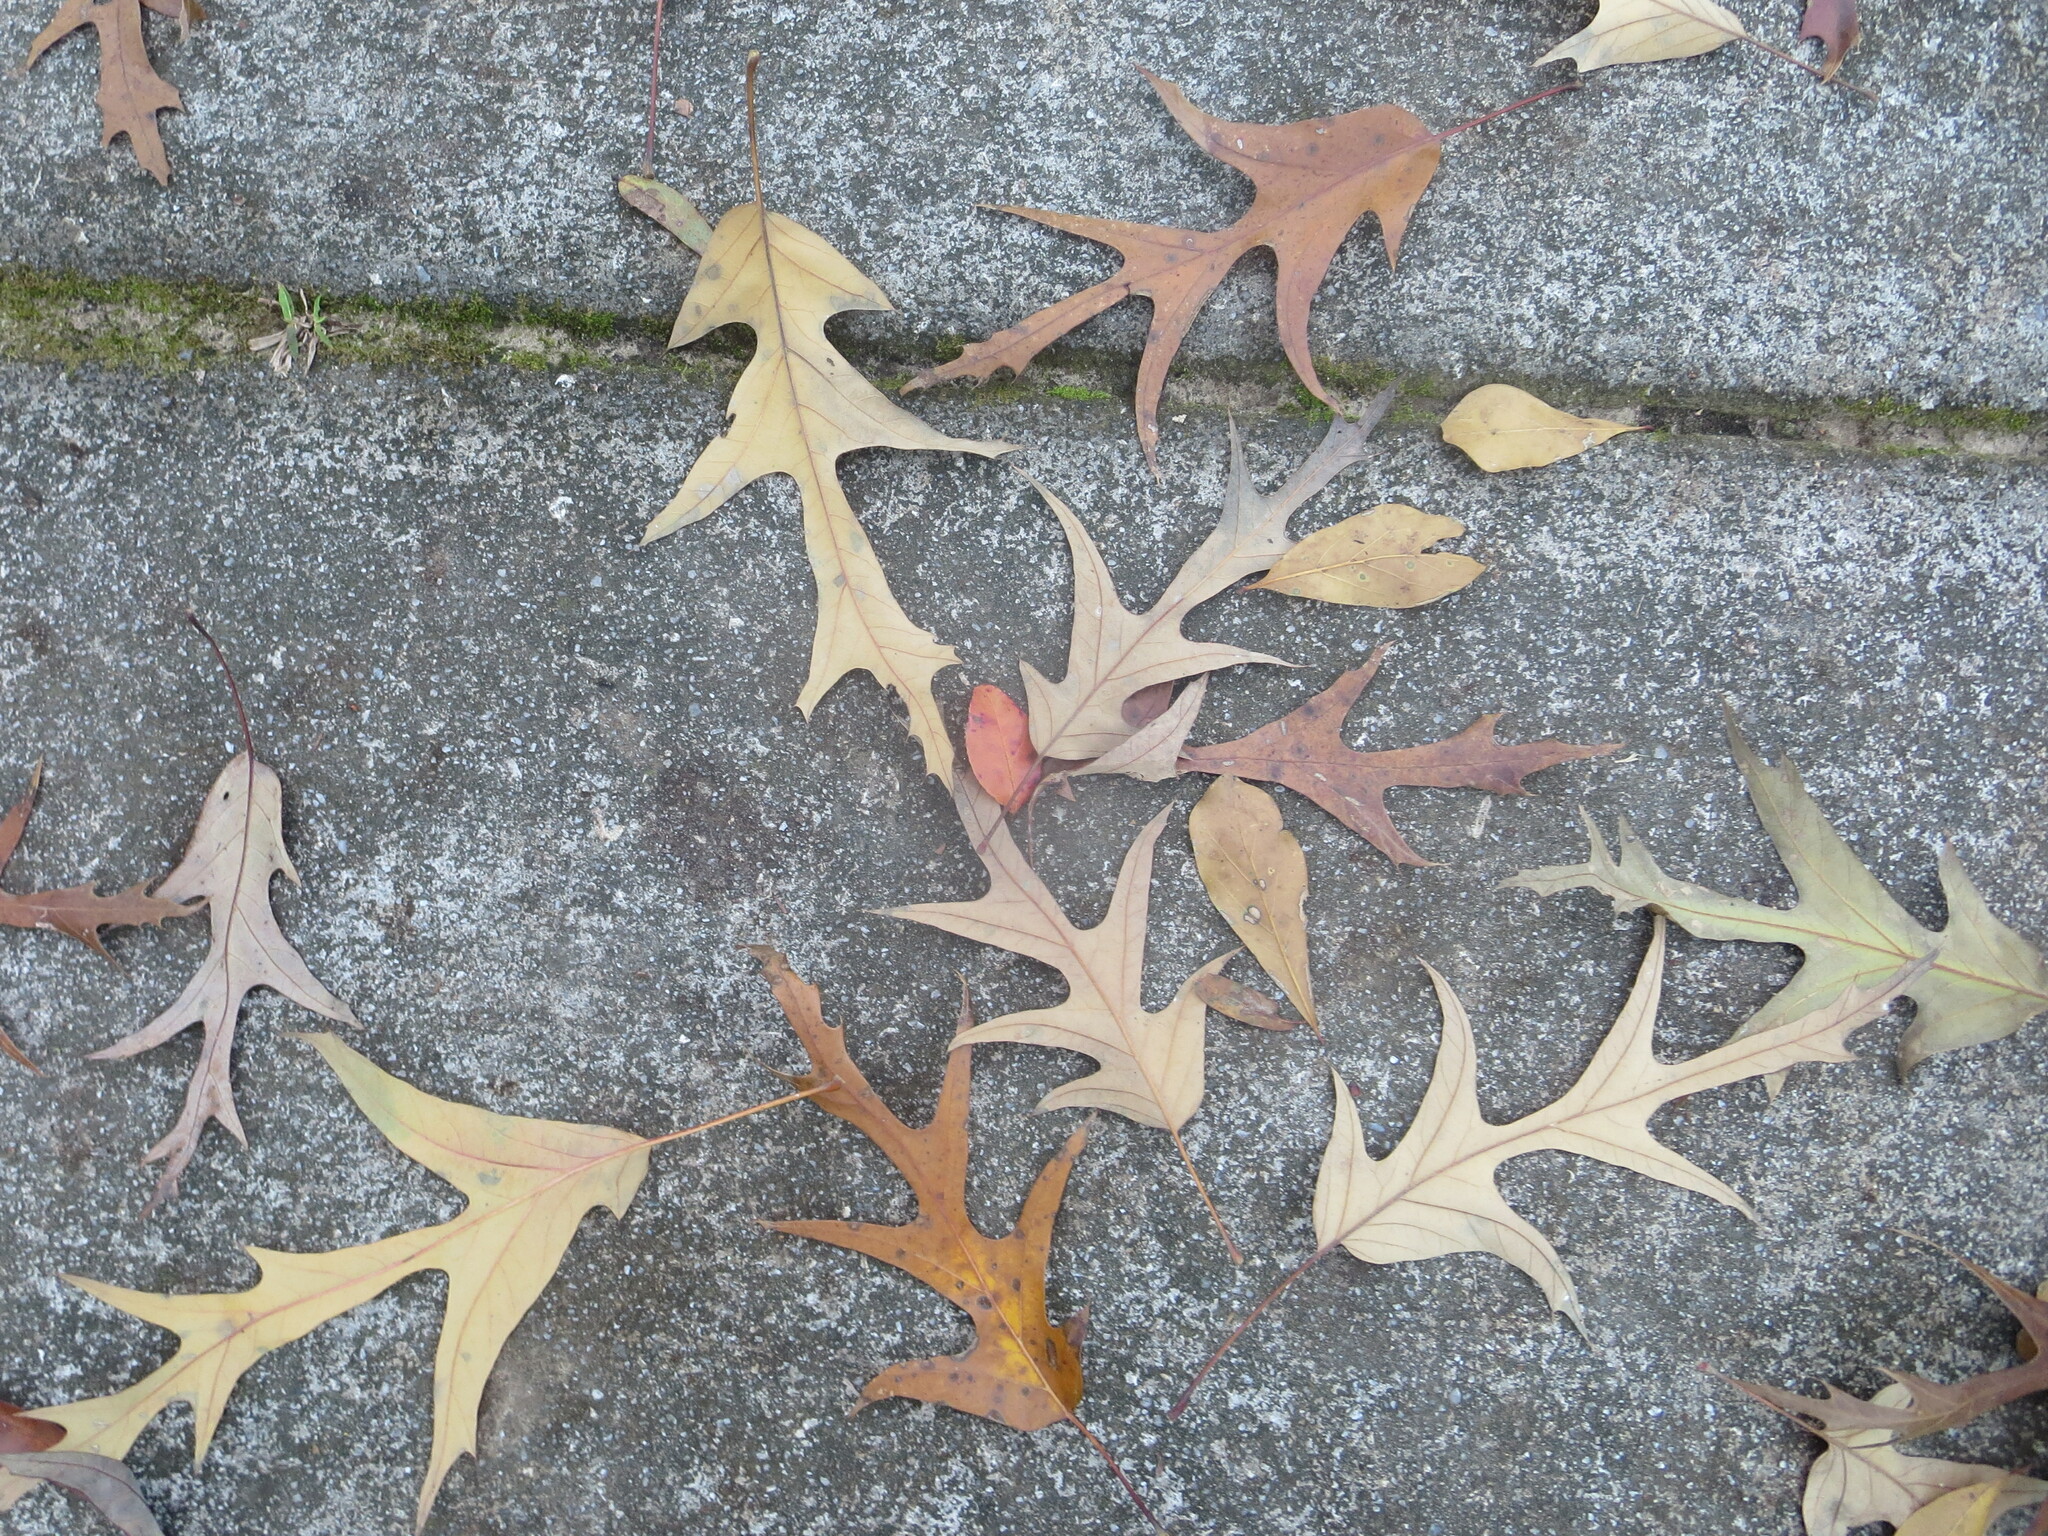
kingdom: Plantae
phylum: Tracheophyta
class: Magnoliopsida
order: Fagales
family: Fagaceae
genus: Quercus
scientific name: Quercus falcata
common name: Southern red oak
